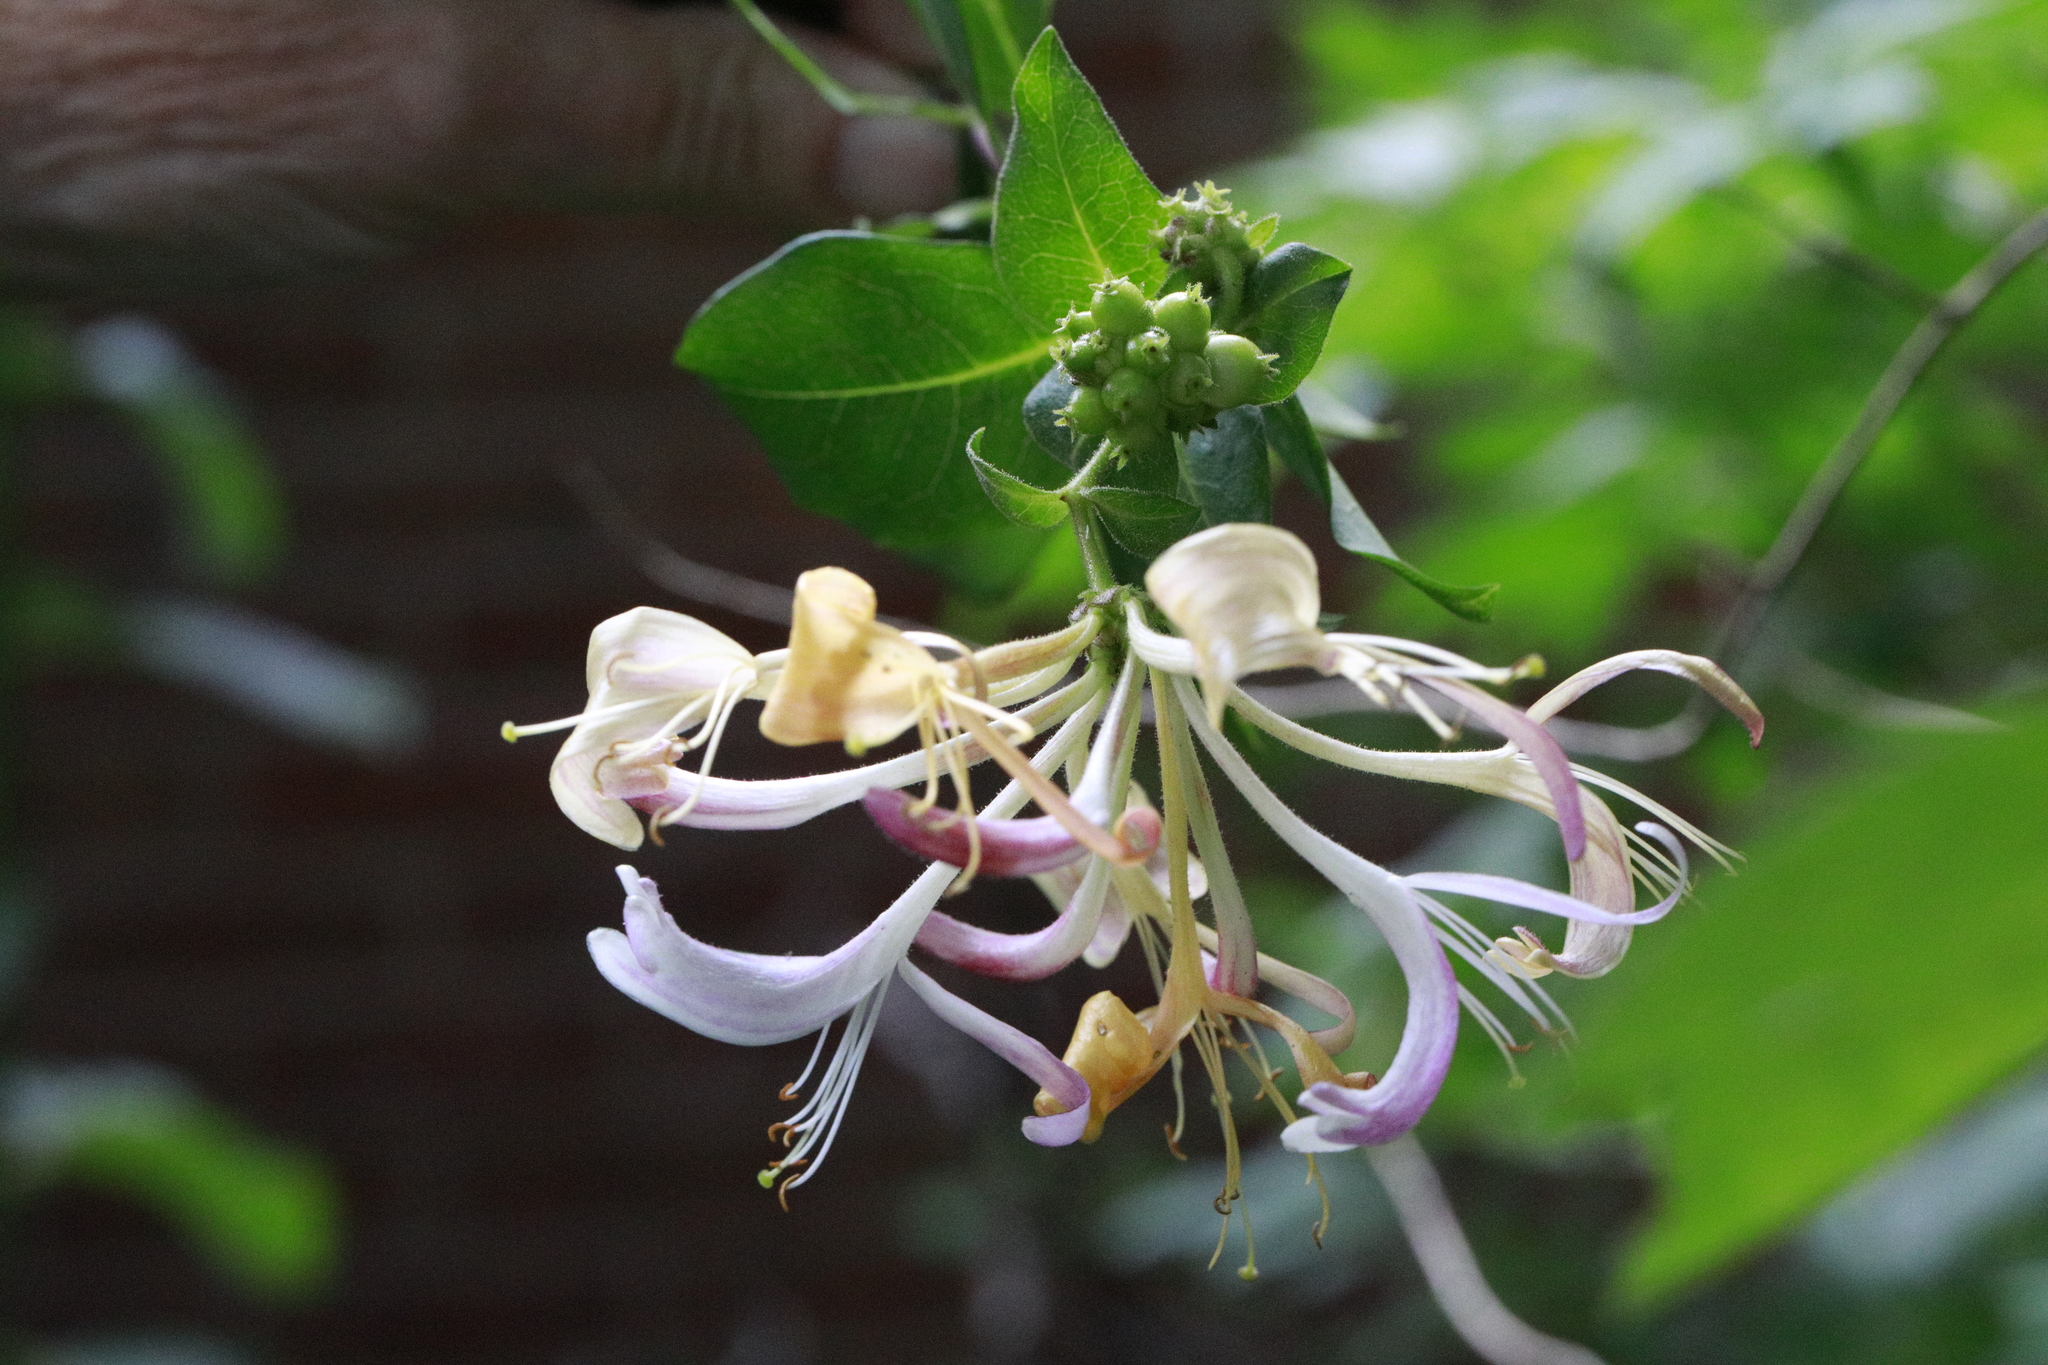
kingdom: Plantae
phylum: Tracheophyta
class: Magnoliopsida
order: Dipsacales
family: Caprifoliaceae
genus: Lonicera
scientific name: Lonicera periclymenum
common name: European honeysuckle
